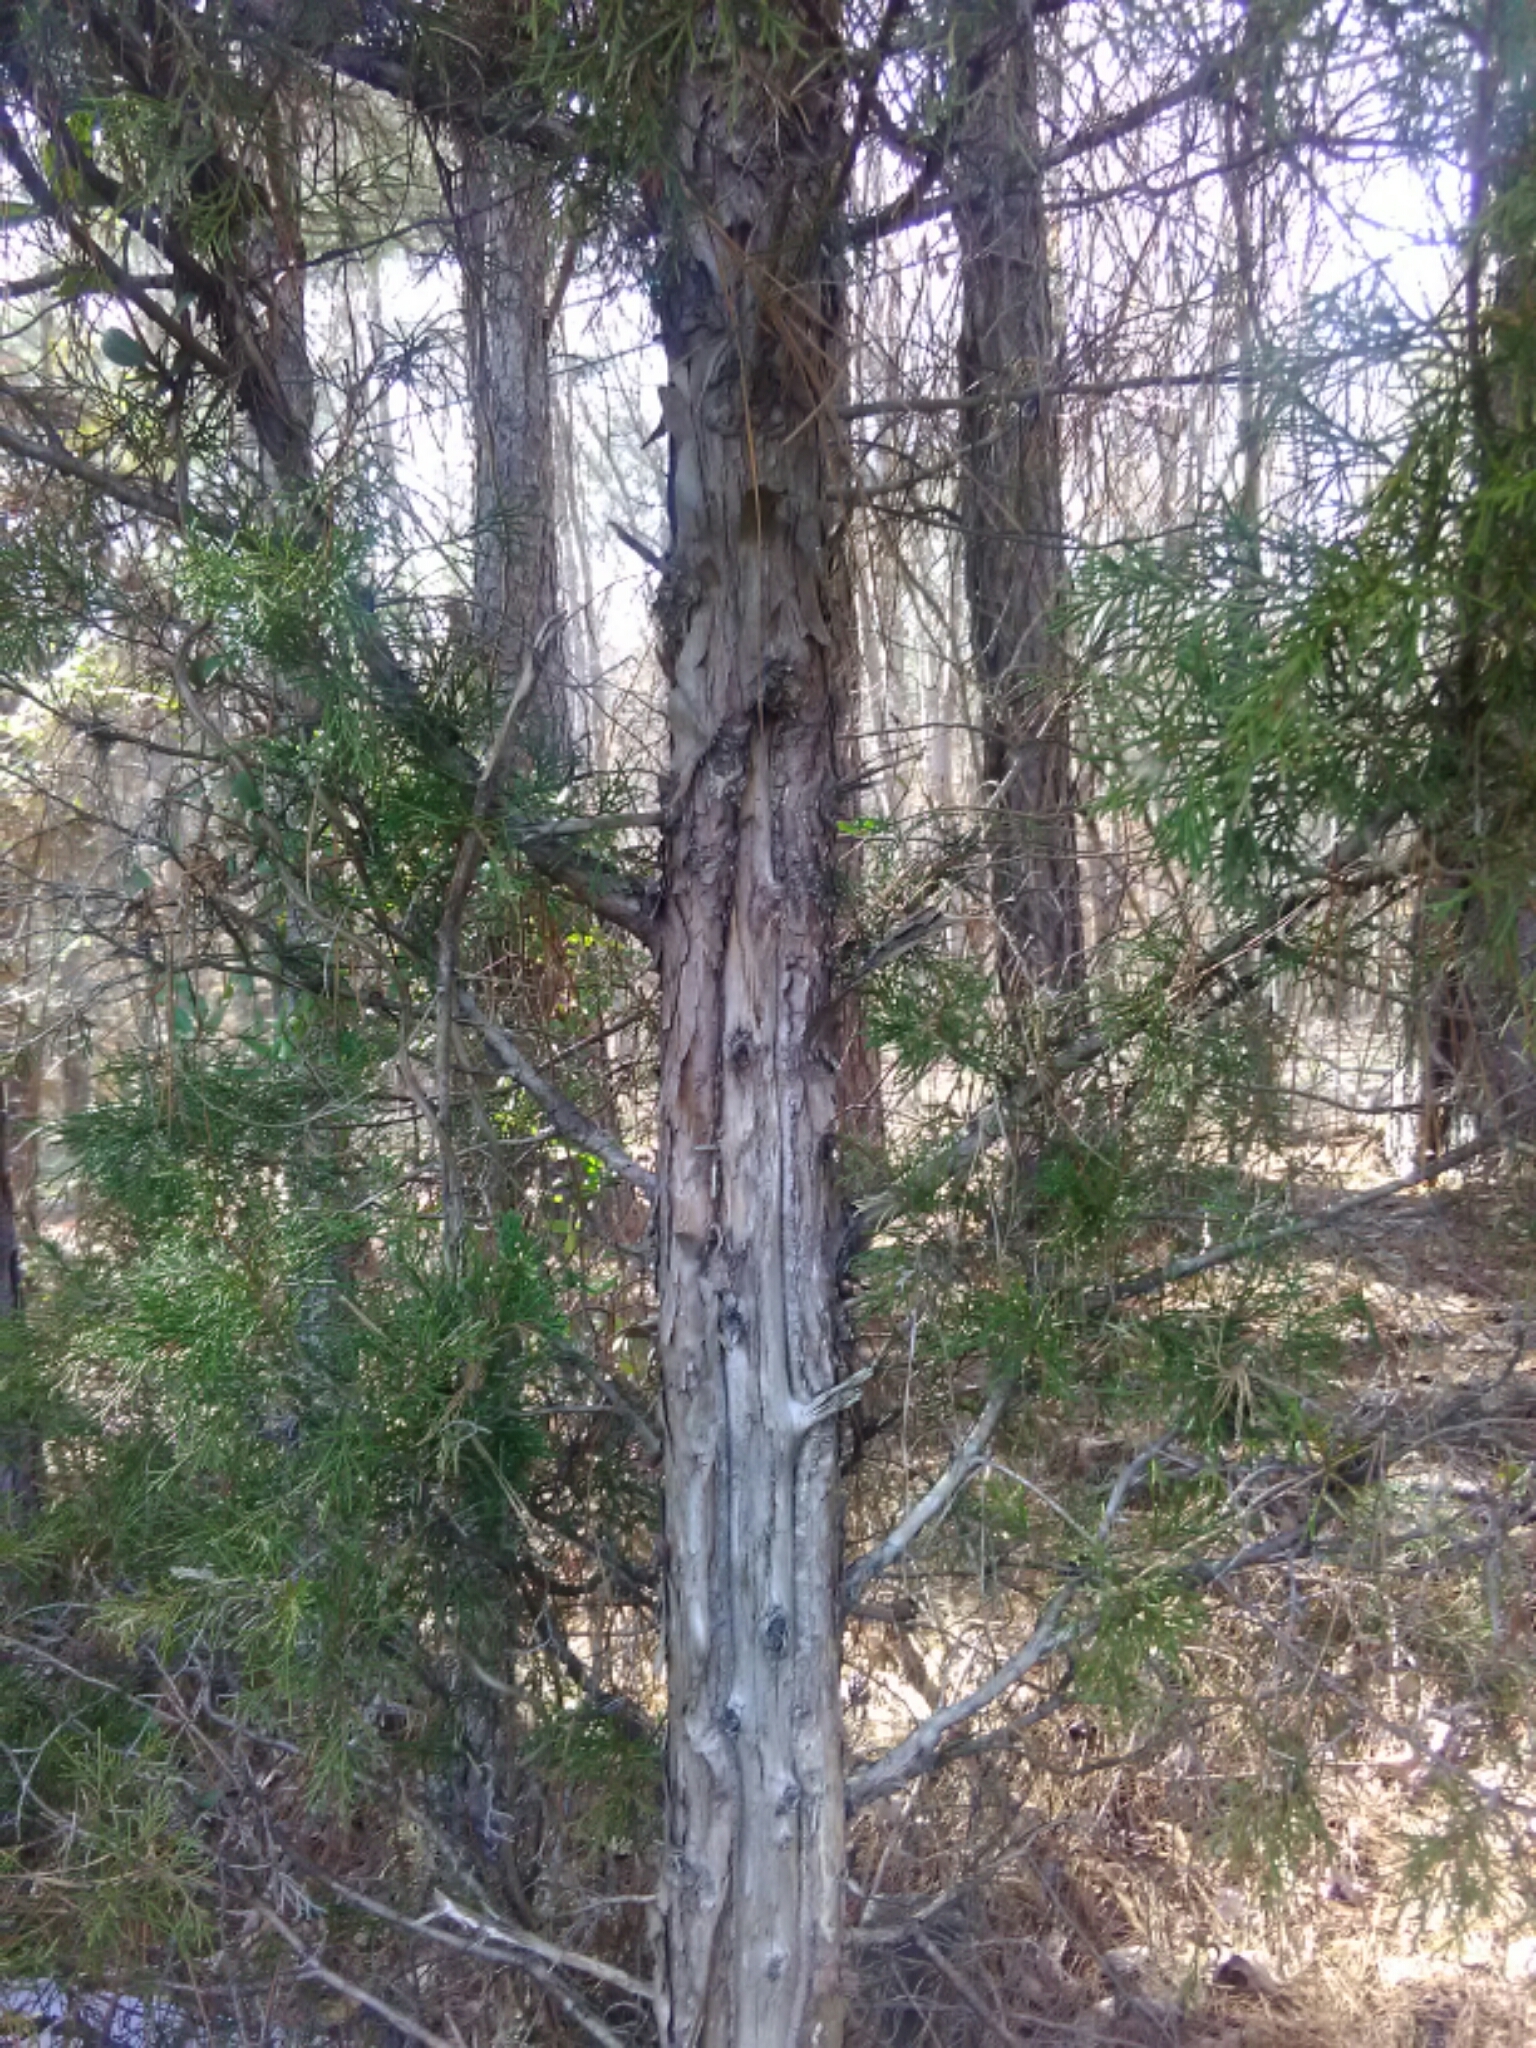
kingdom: Plantae
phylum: Tracheophyta
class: Pinopsida
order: Pinales
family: Cupressaceae
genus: Juniperus
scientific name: Juniperus virginiana
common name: Red juniper
